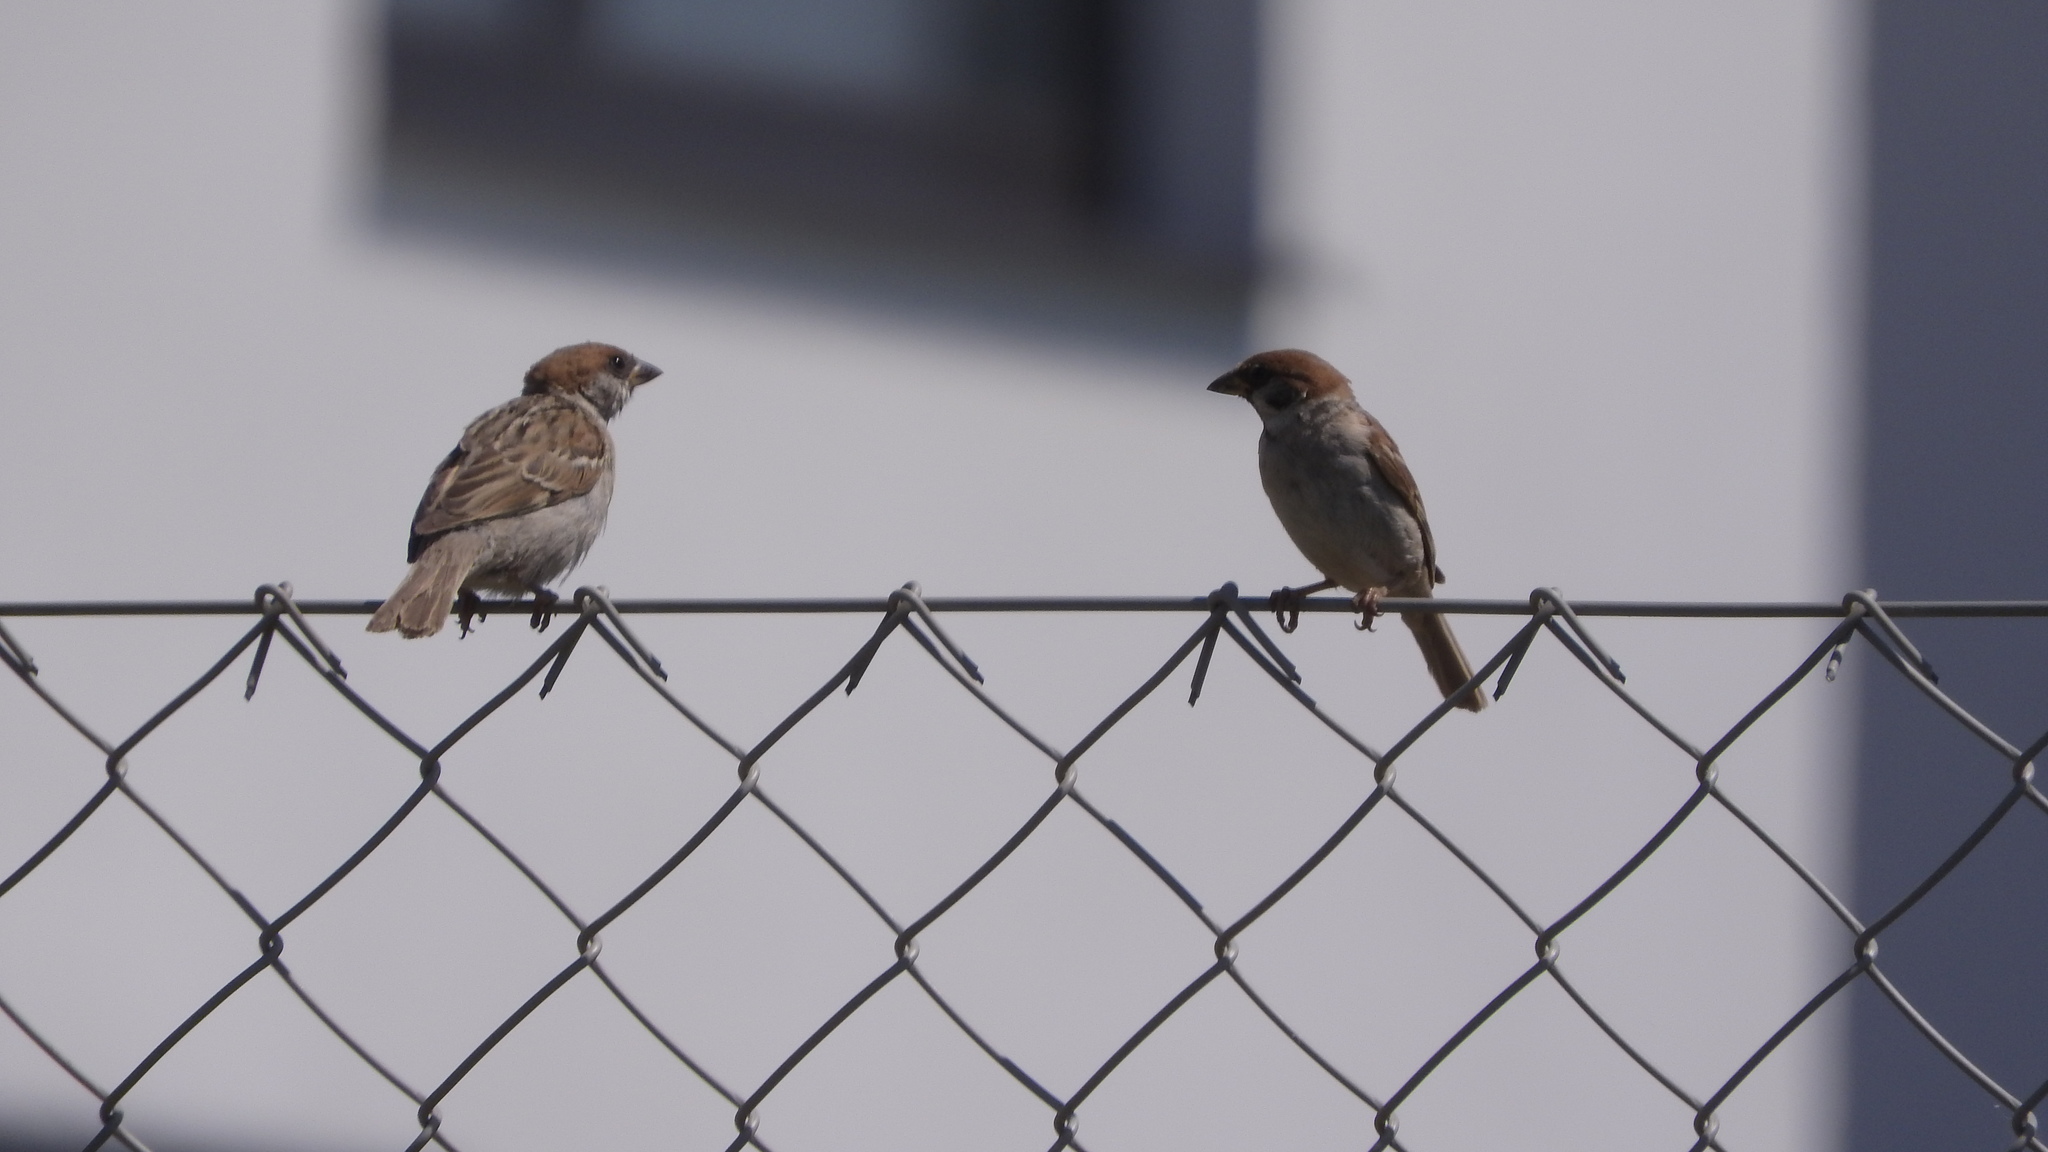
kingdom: Animalia
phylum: Chordata
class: Aves
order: Passeriformes
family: Passeridae
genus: Passer
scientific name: Passer montanus
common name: Eurasian tree sparrow
